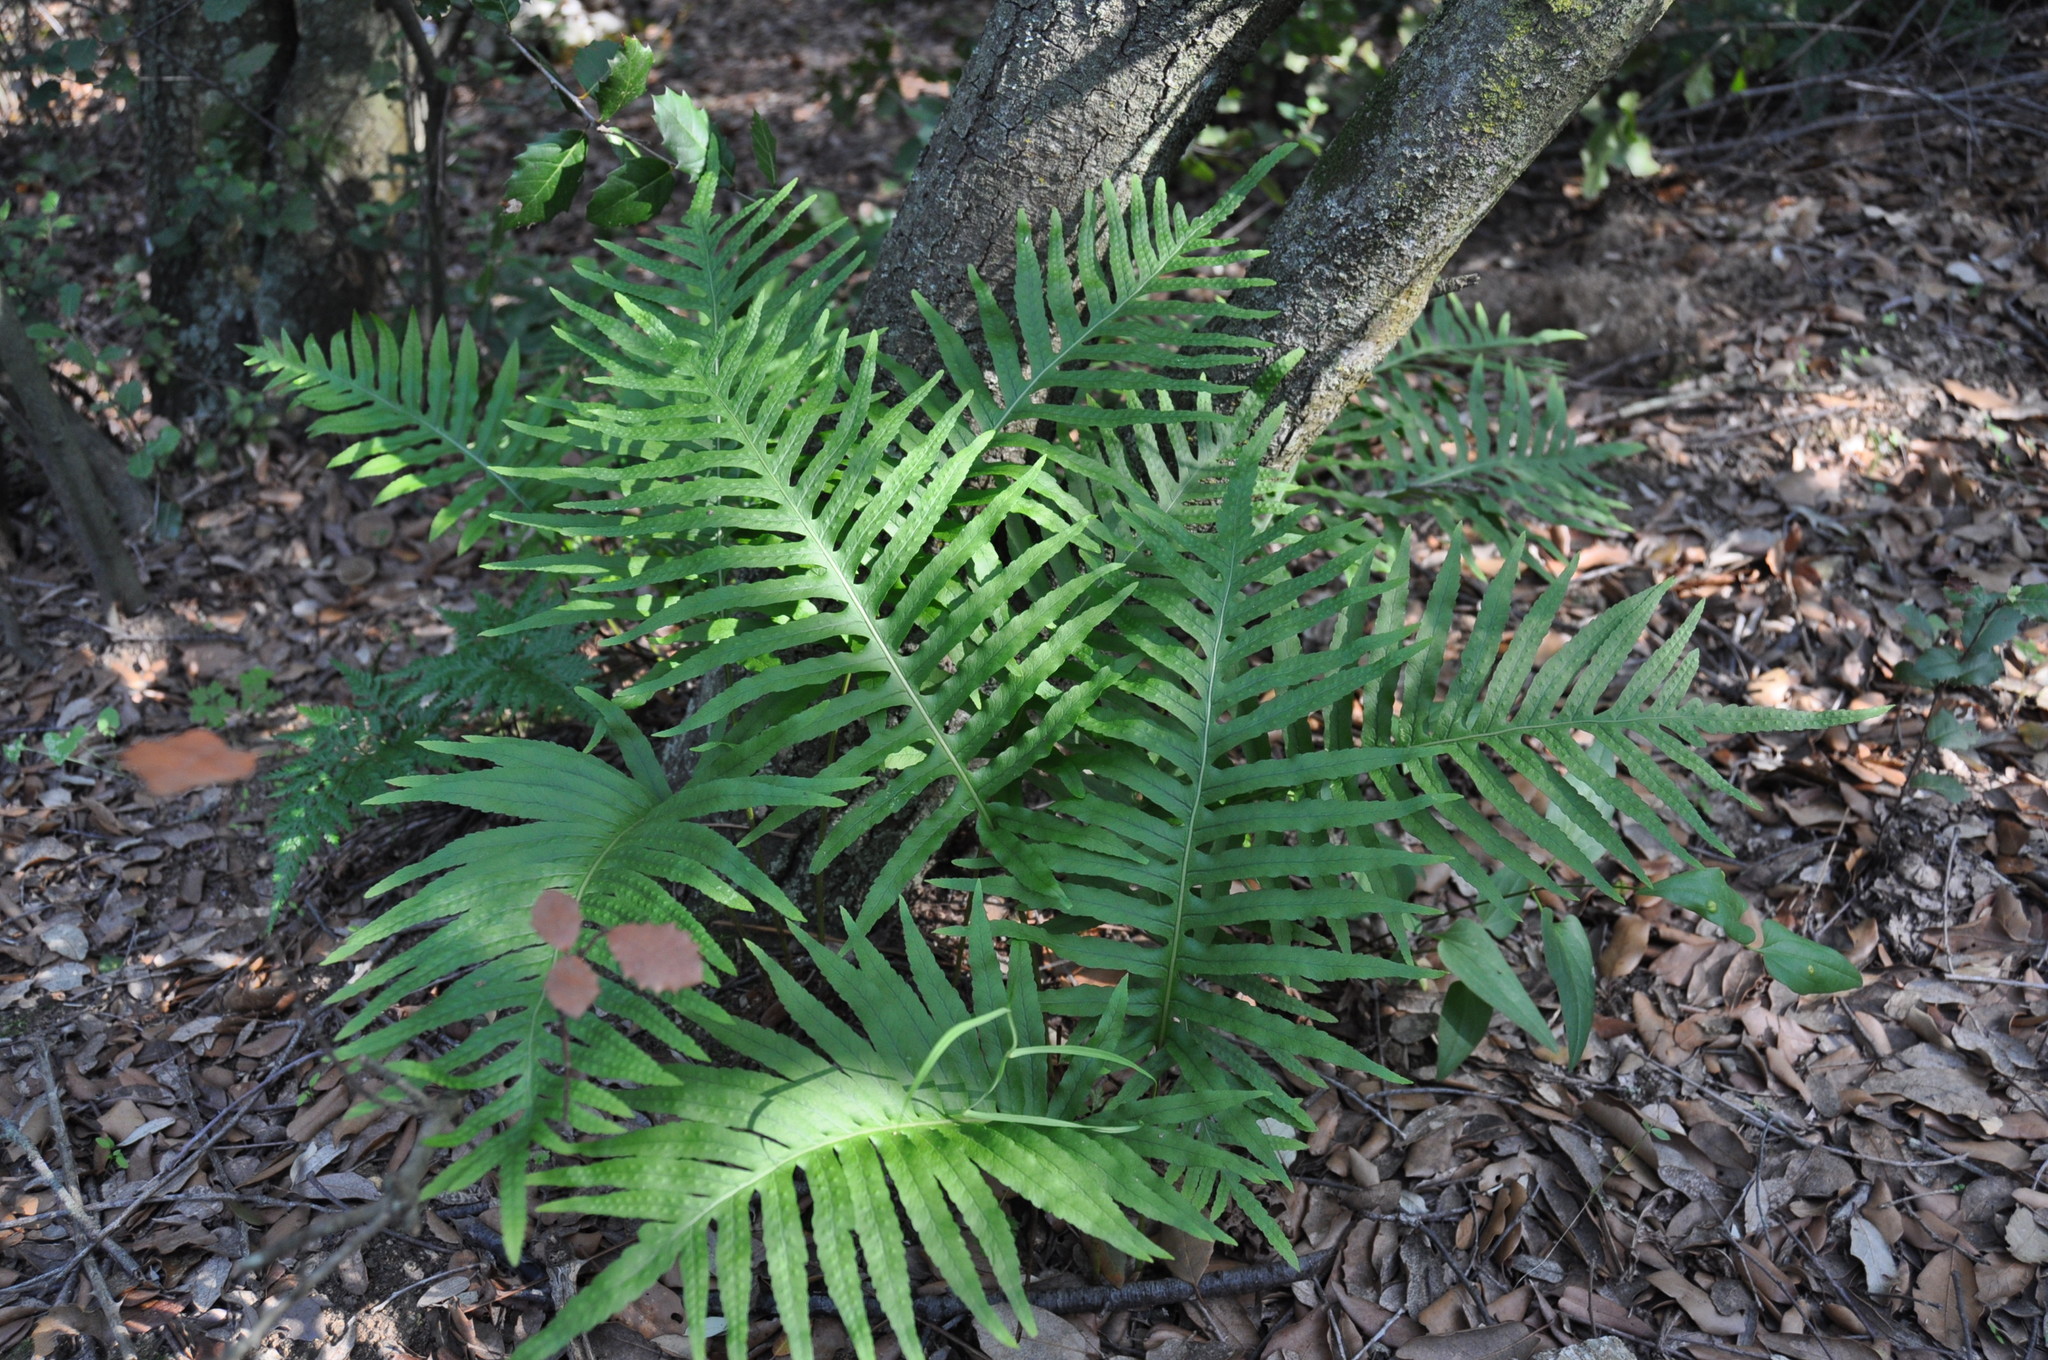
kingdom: Plantae
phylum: Tracheophyta
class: Polypodiopsida
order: Polypodiales
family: Polypodiaceae
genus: Polypodium
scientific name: Polypodium cambricum
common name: Southern polypody
